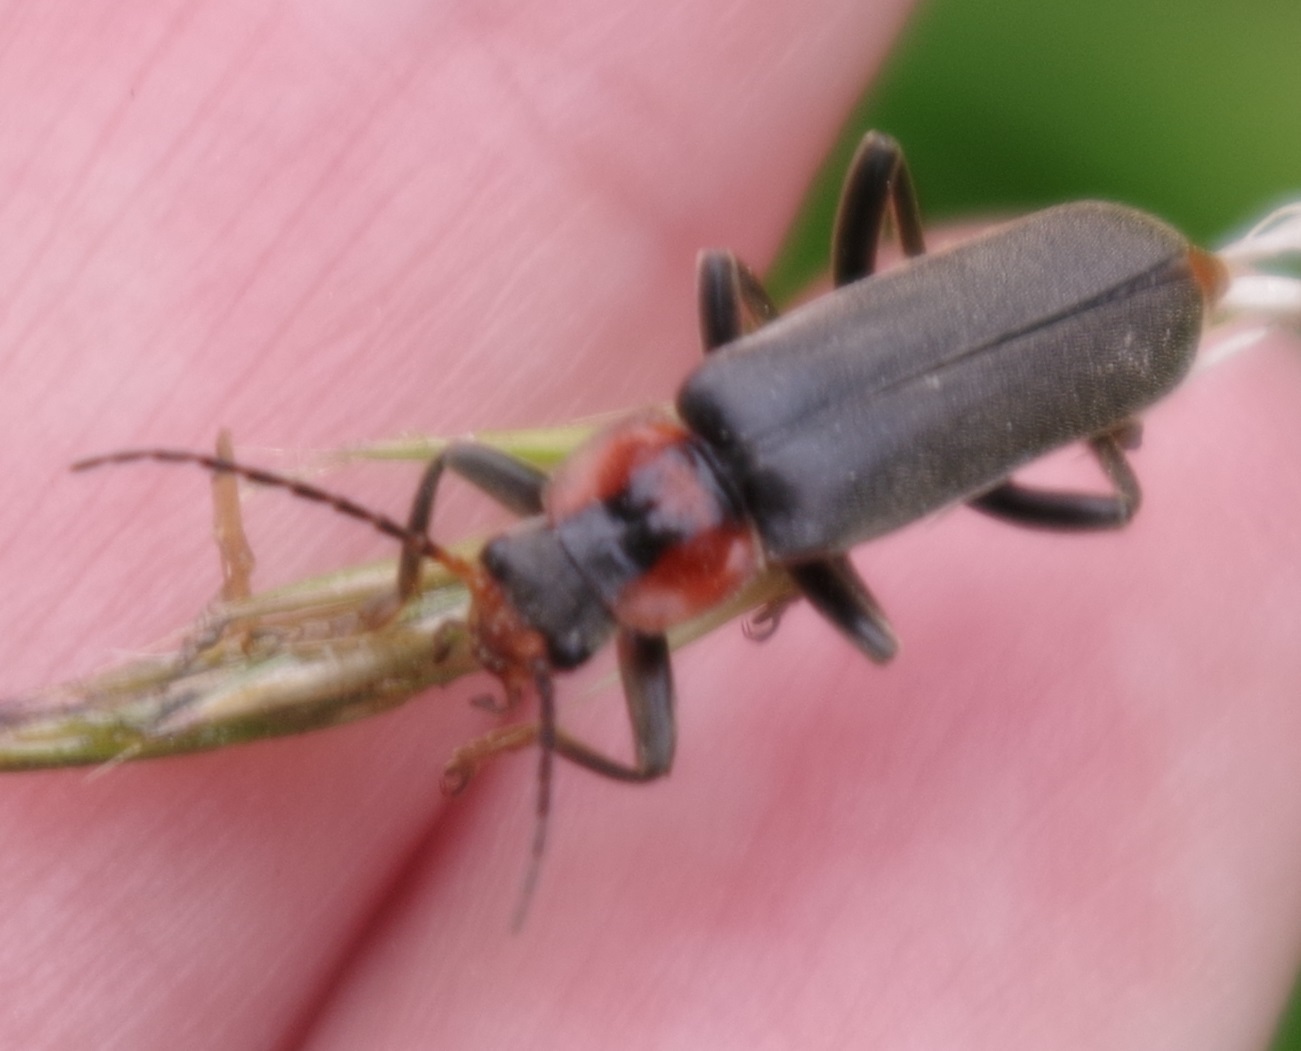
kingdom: Animalia
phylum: Arthropoda
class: Insecta
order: Coleoptera
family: Cantharidae
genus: Cantharis
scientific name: Cantharis fusca
